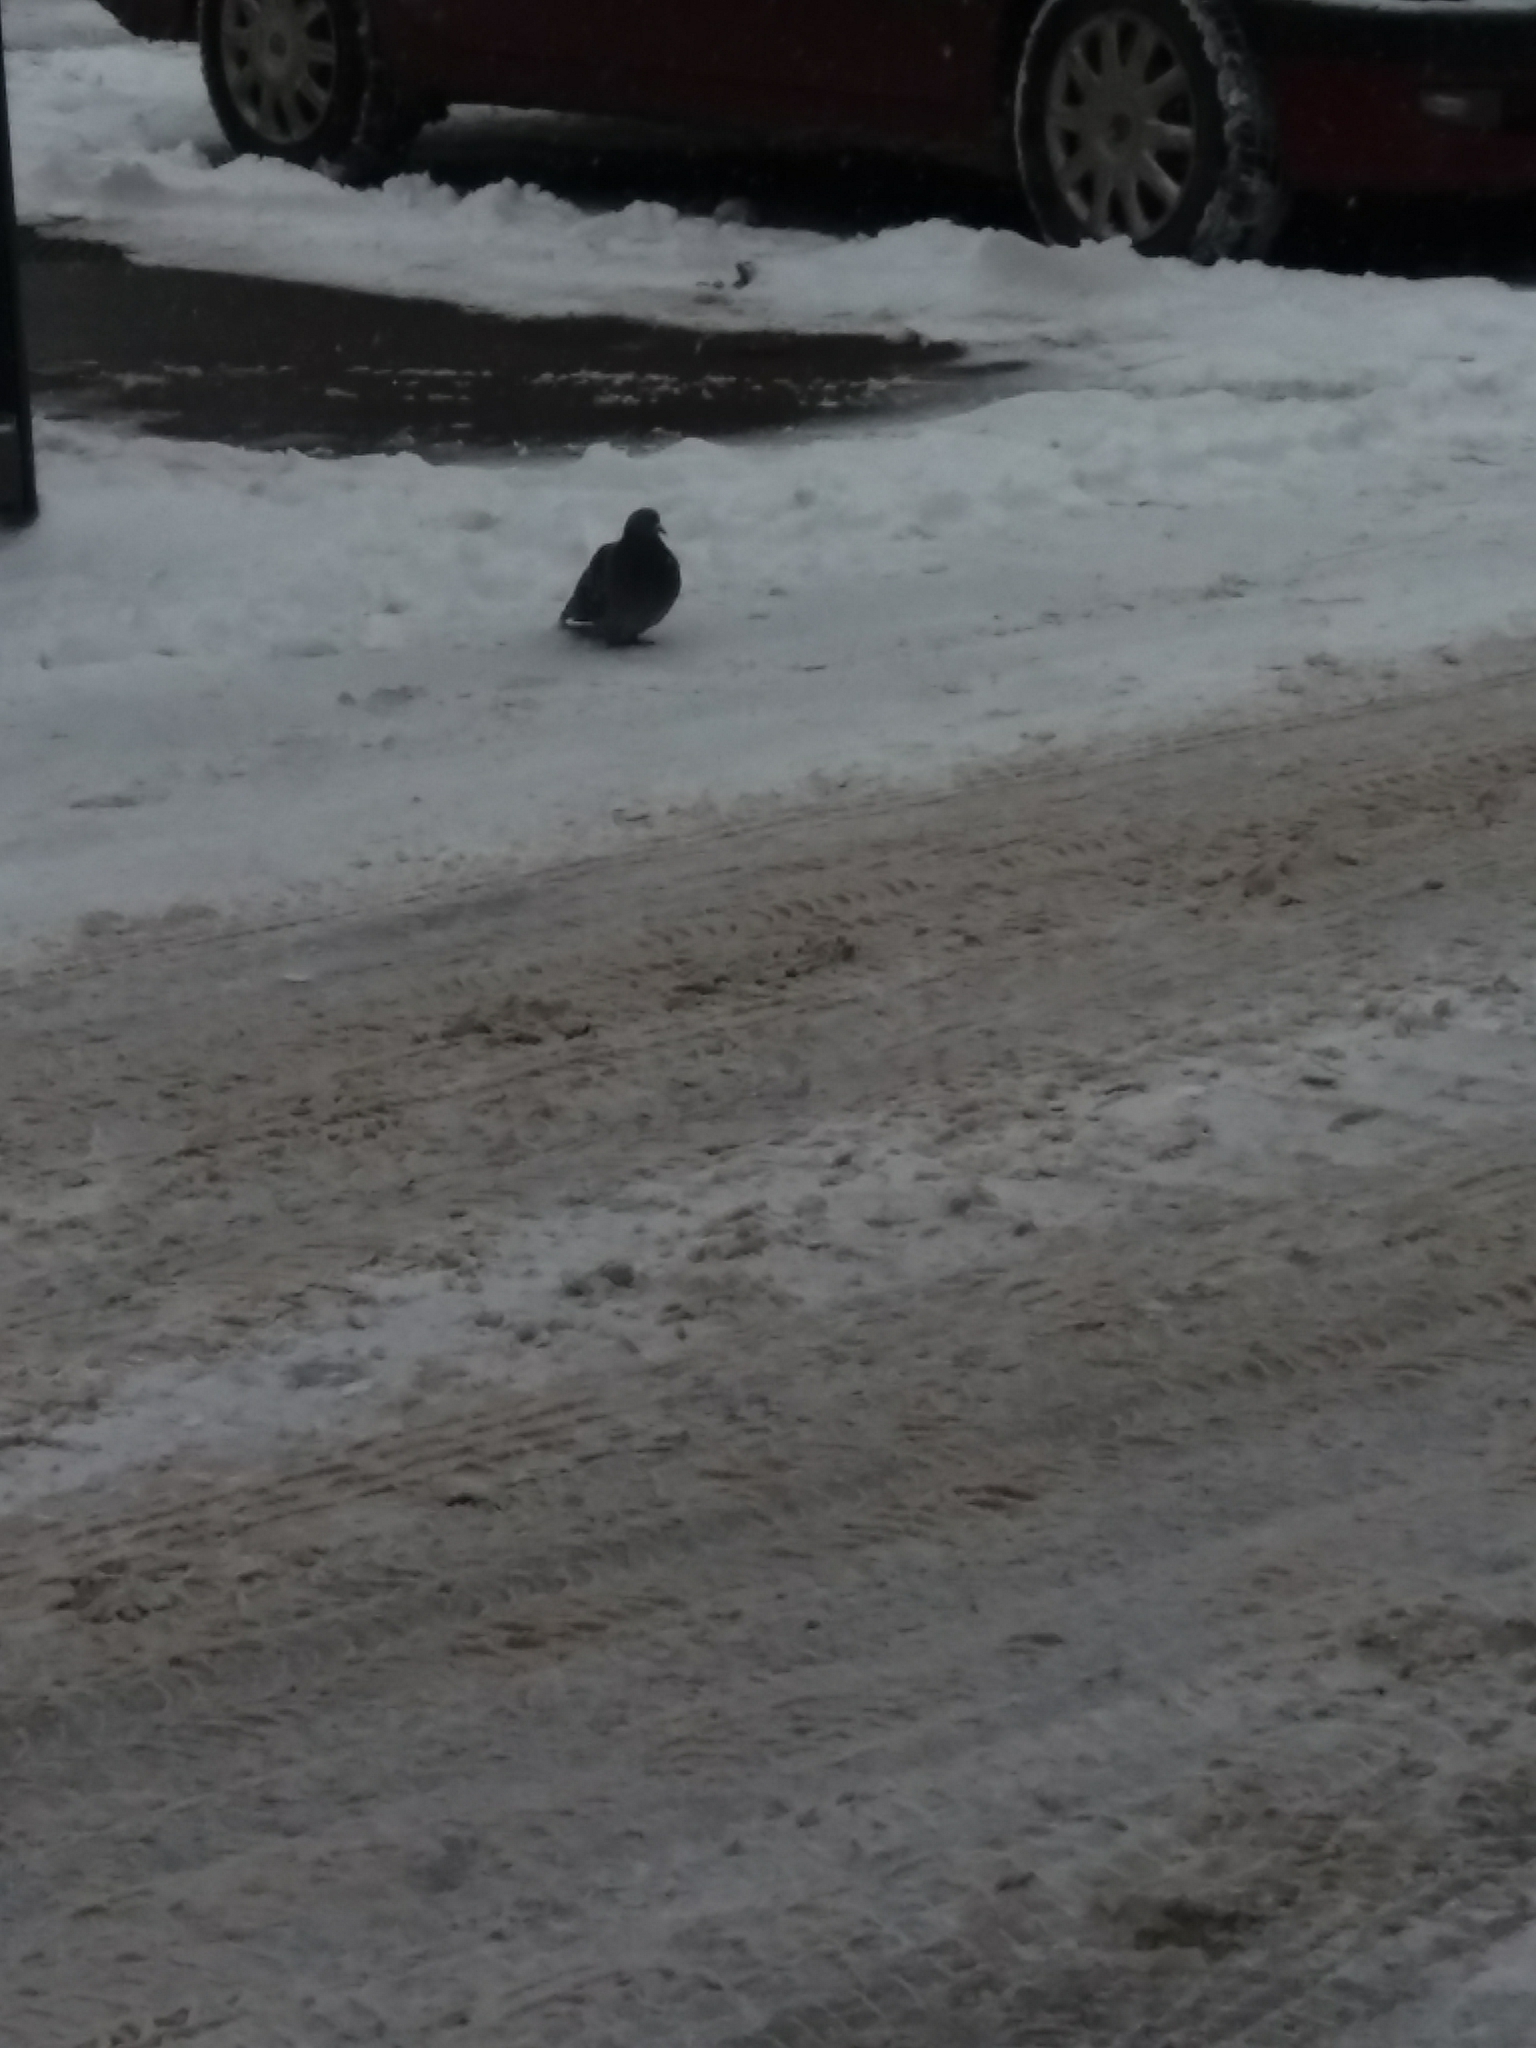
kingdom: Animalia
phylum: Chordata
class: Aves
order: Columbiformes
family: Columbidae
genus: Columba
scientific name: Columba livia
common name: Rock pigeon
